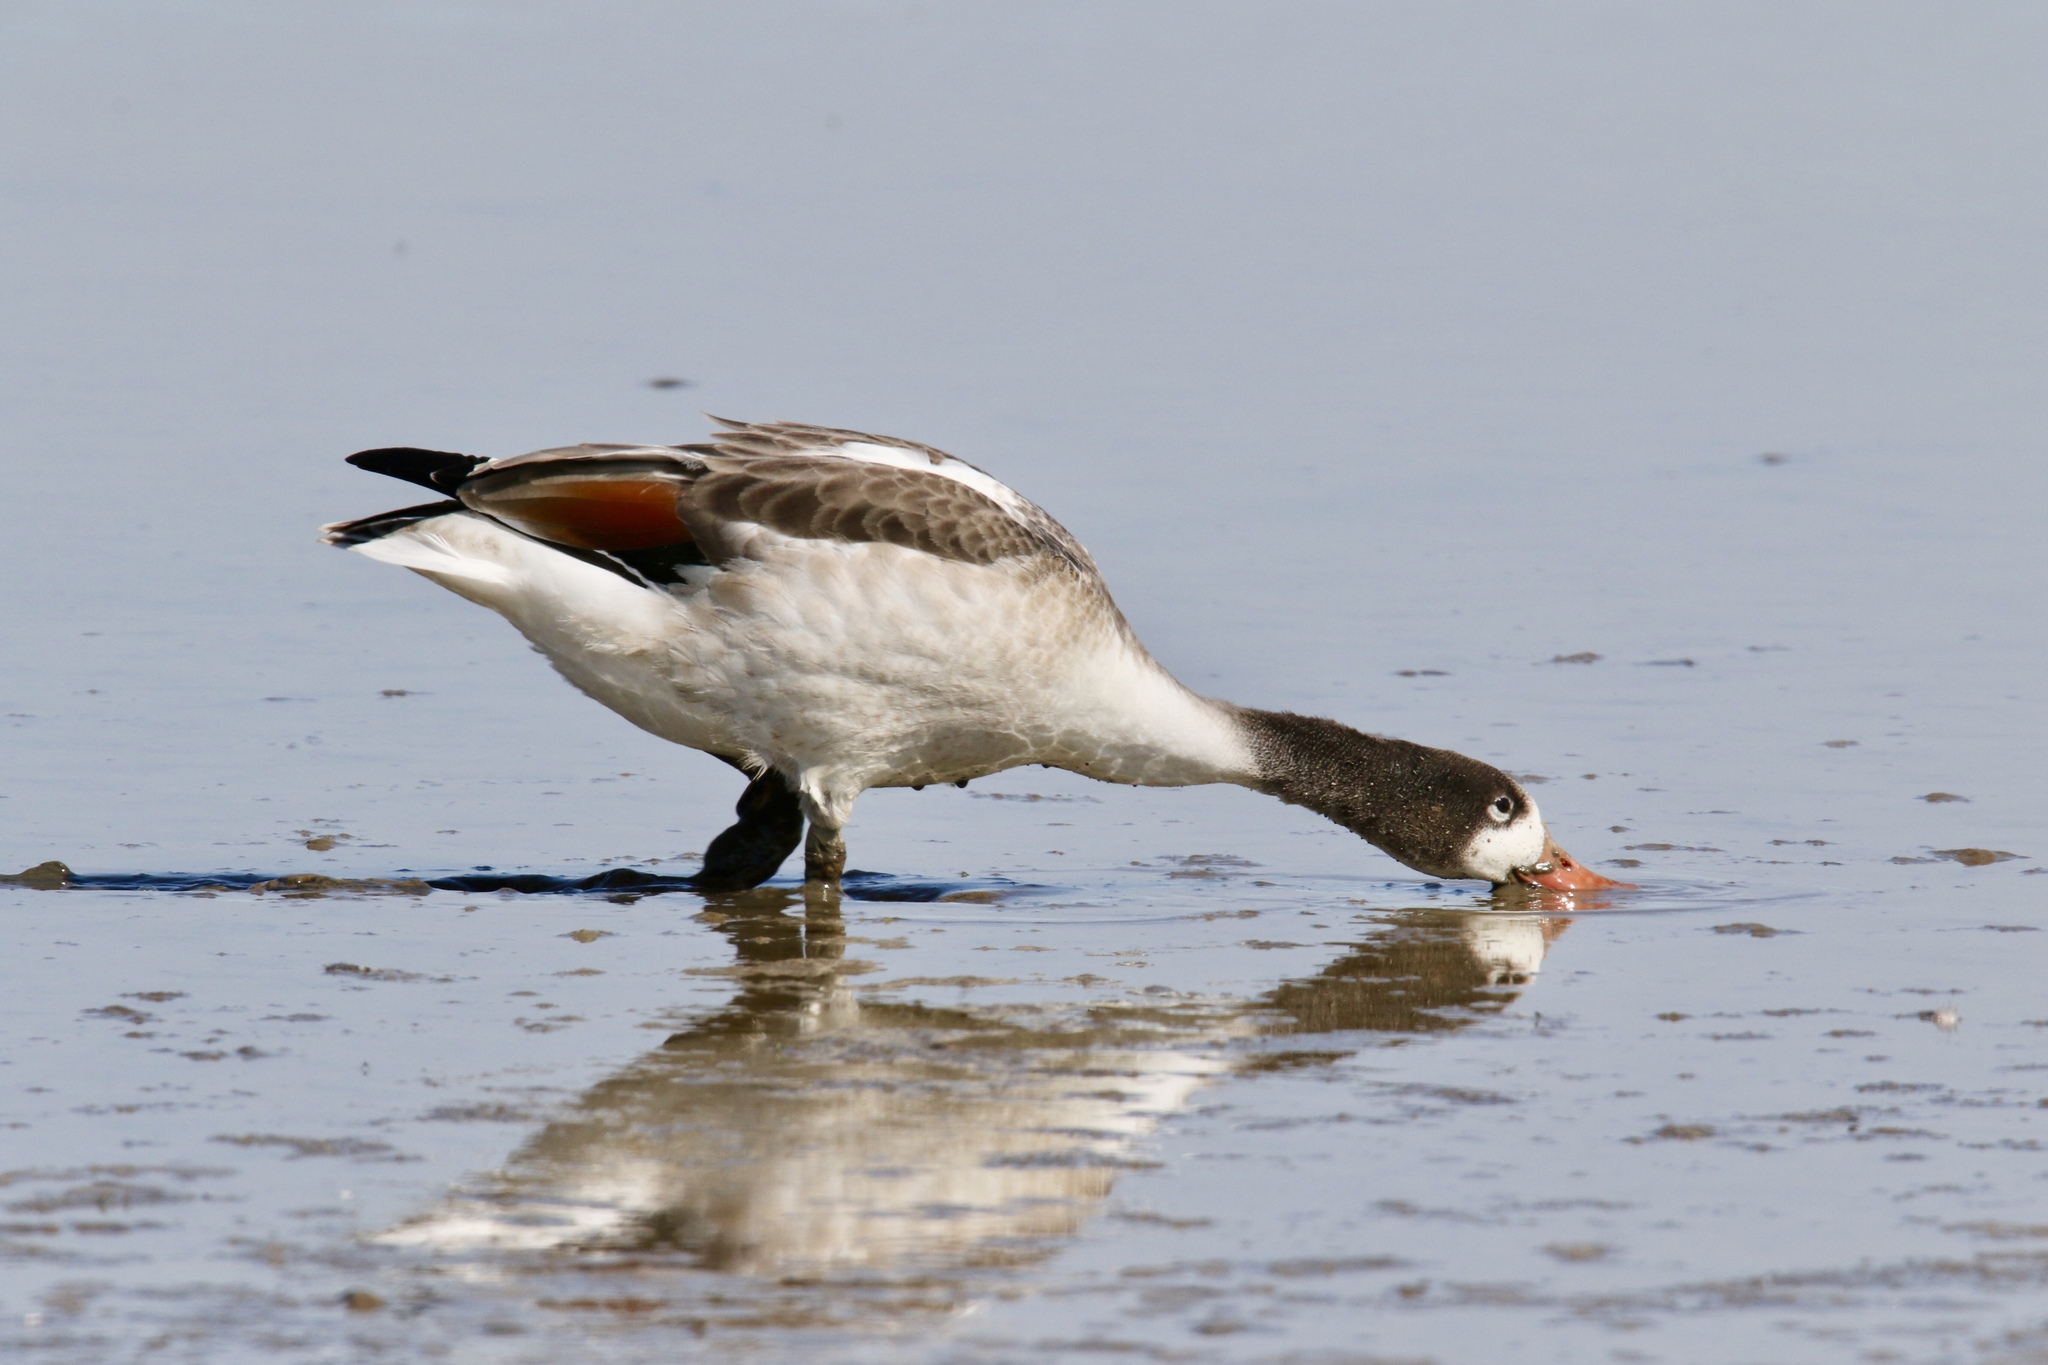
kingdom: Animalia
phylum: Chordata
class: Aves
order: Anseriformes
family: Anatidae
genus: Tadorna
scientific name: Tadorna tadorna
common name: Common shelduck
